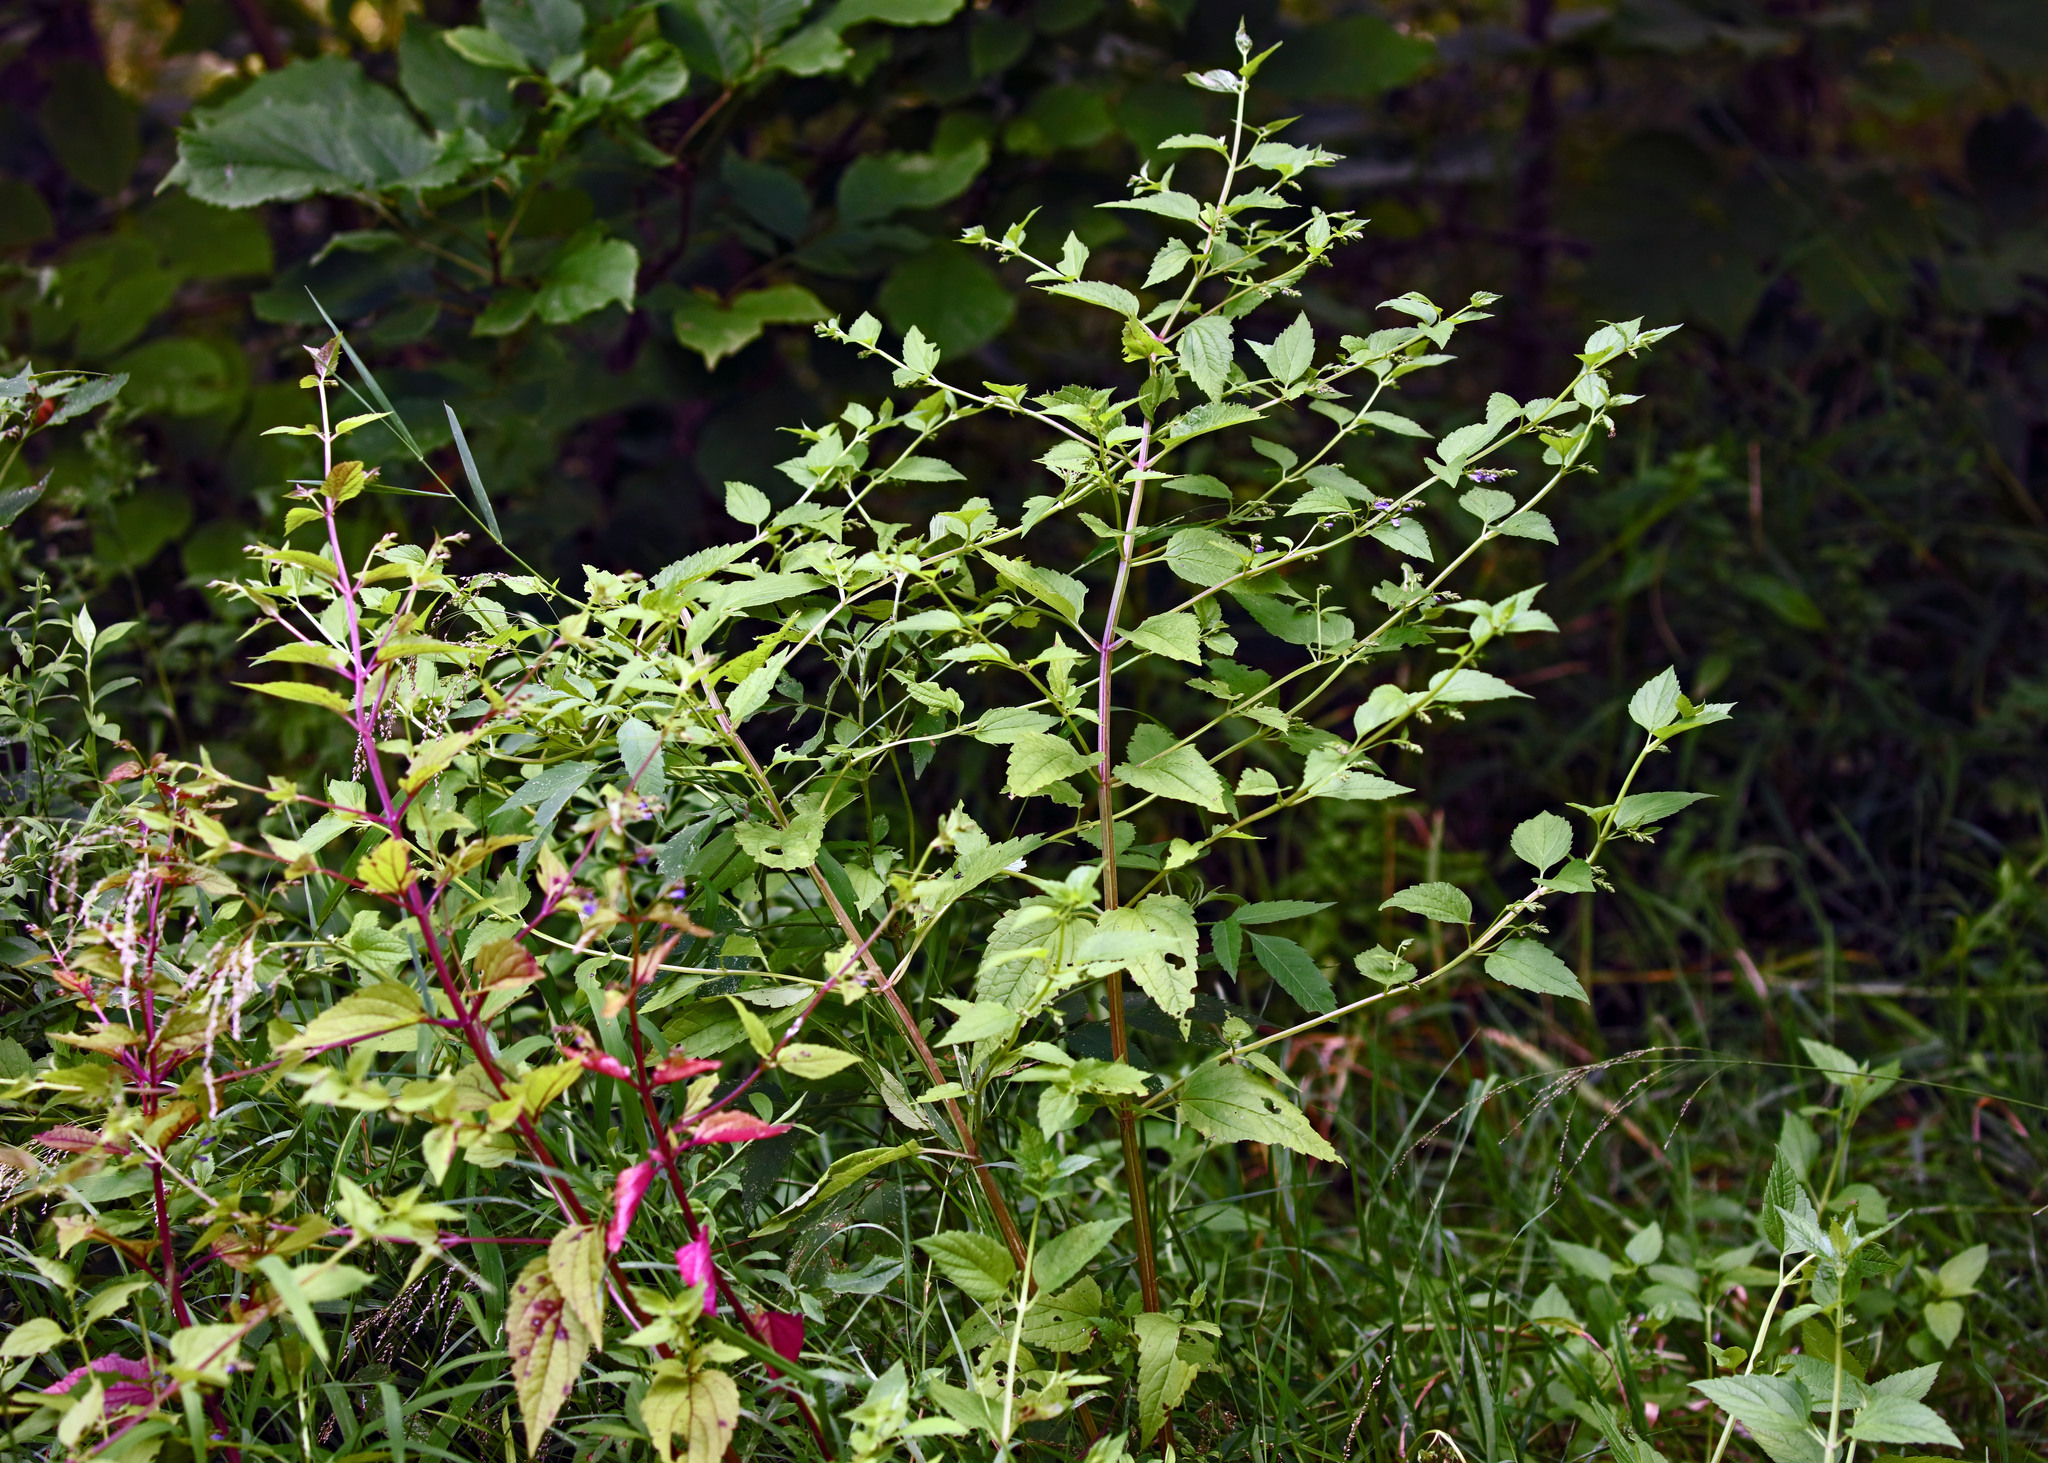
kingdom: Plantae
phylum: Tracheophyta
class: Magnoliopsida
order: Lamiales
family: Lamiaceae
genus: Scutellaria
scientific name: Scutellaria lateriflora
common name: Blue skullcap
